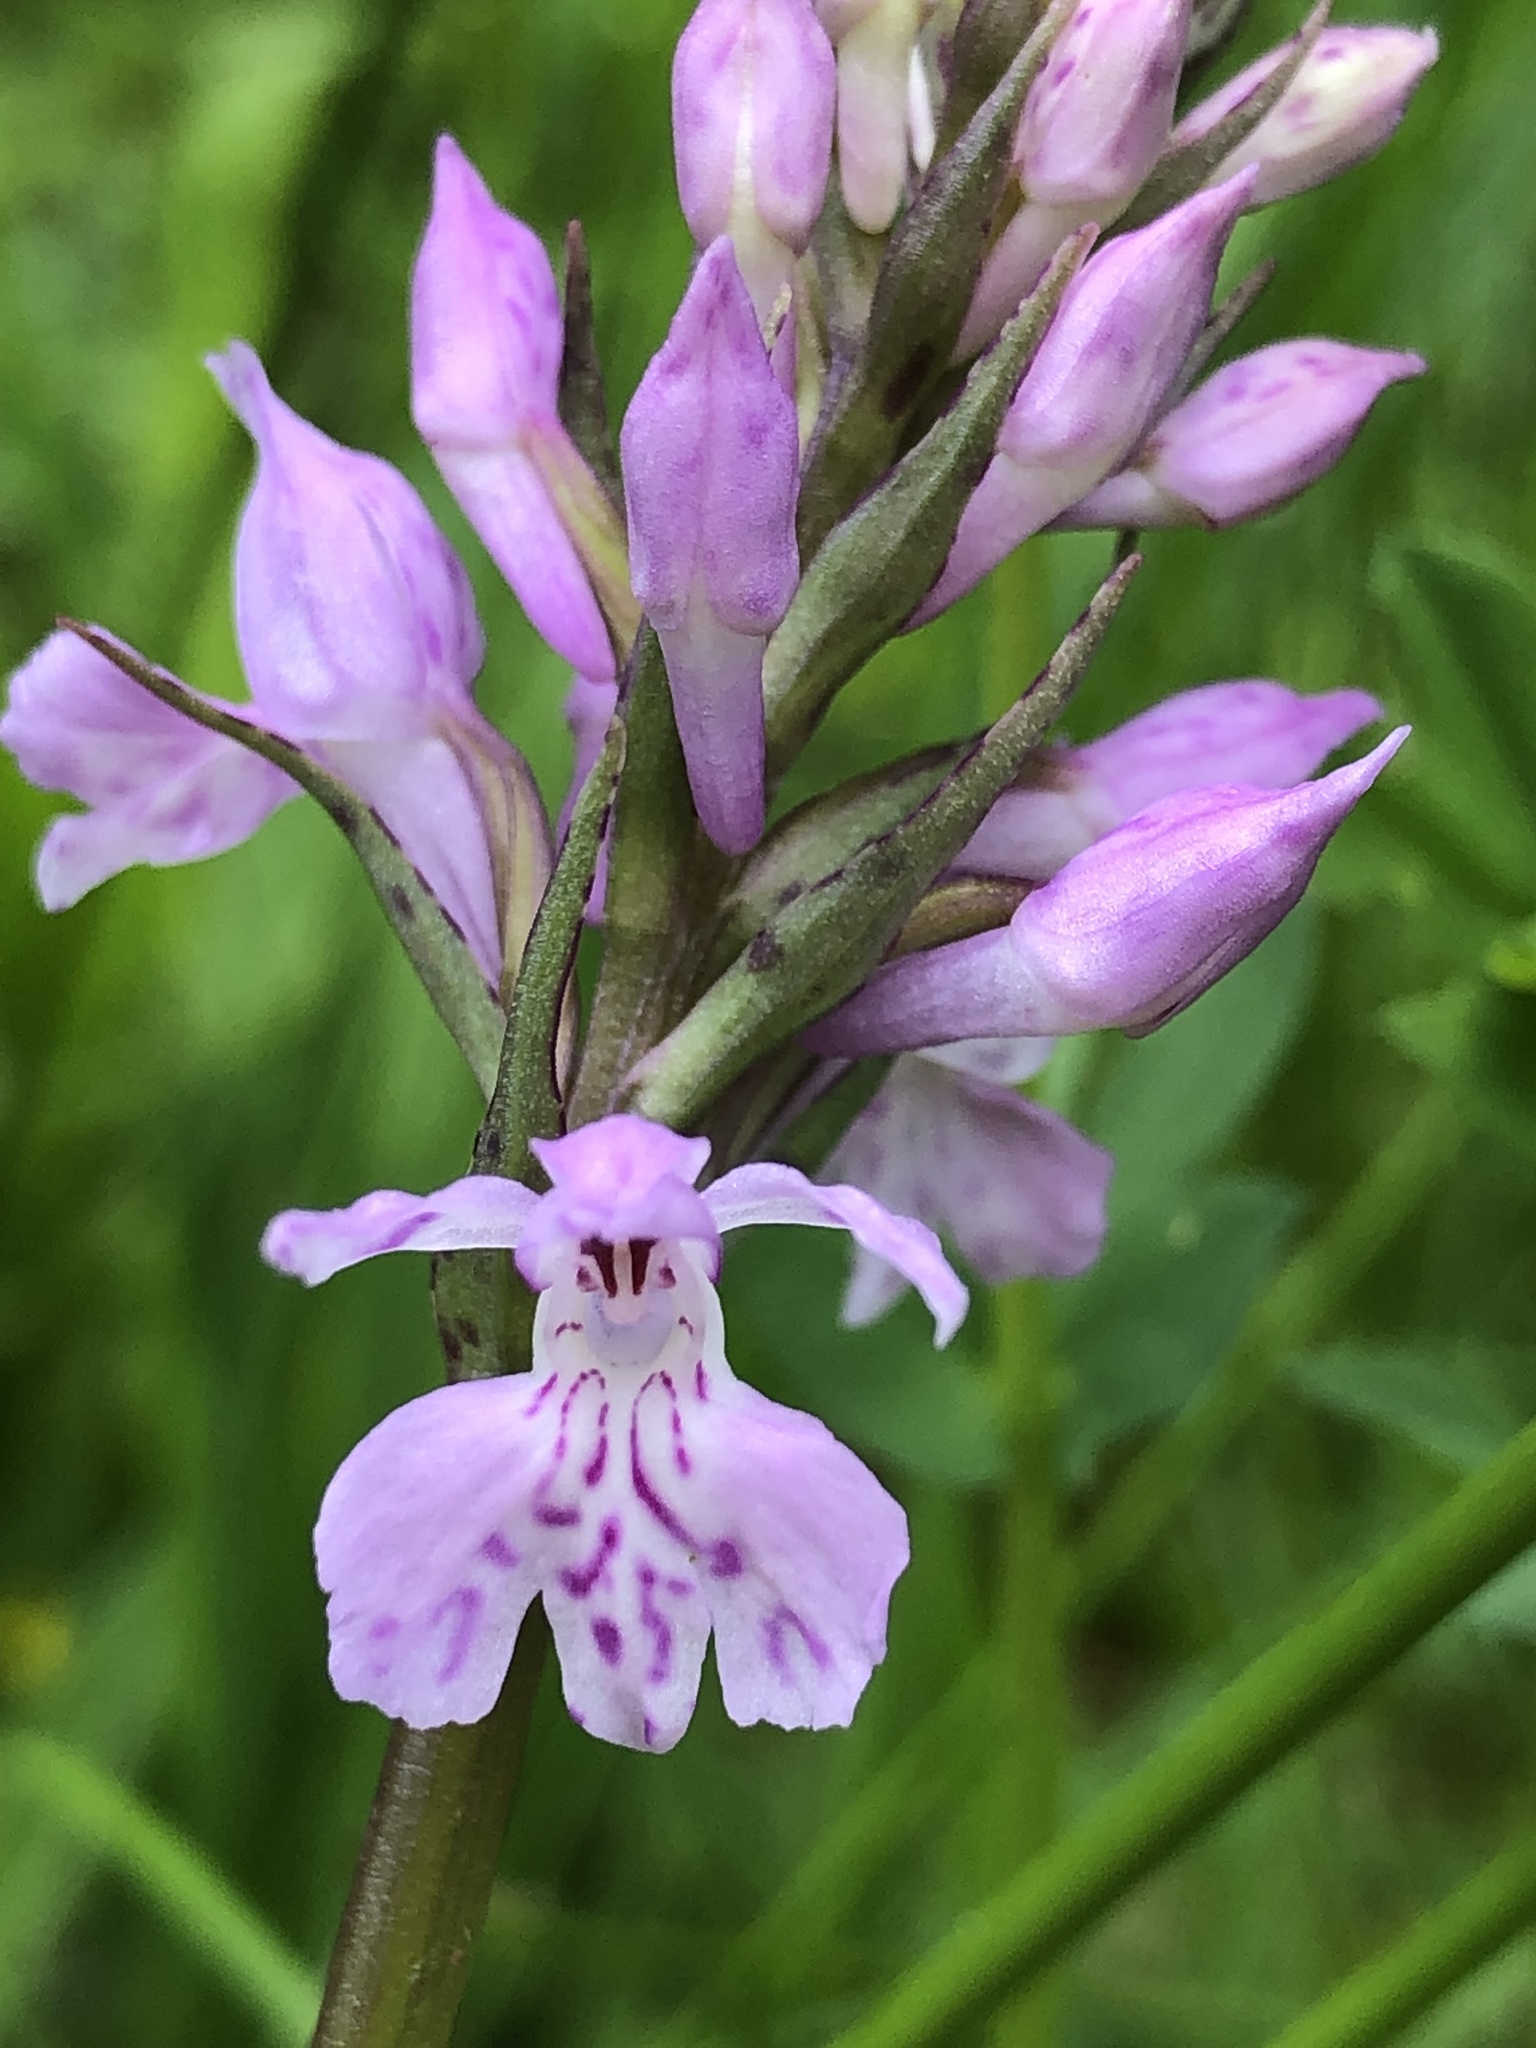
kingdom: Plantae
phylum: Tracheophyta
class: Liliopsida
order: Asparagales
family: Orchidaceae
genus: Dactylorhiza
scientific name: Dactylorhiza maculata
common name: Heath spotted-orchid
